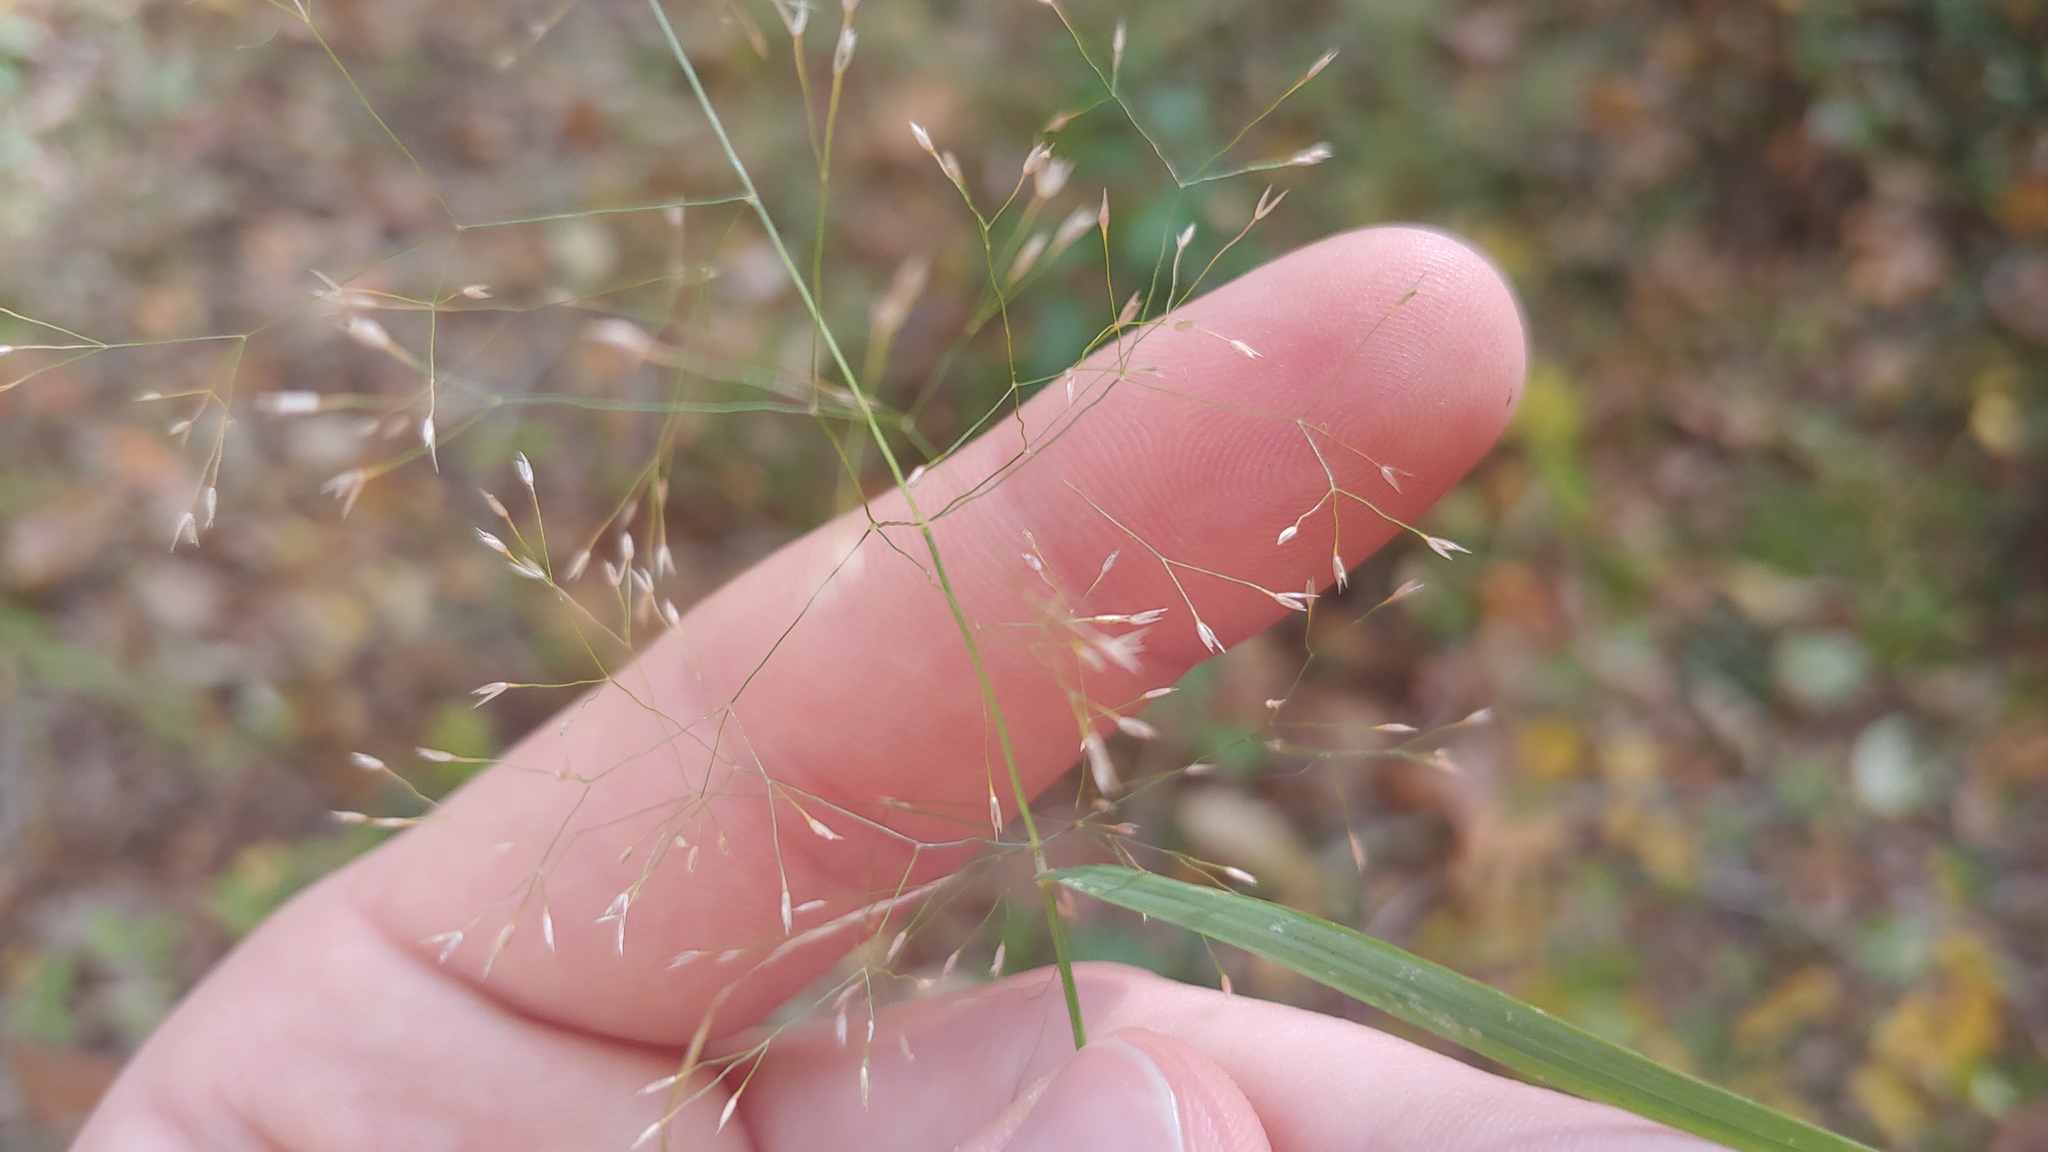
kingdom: Plantae
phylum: Tracheophyta
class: Liliopsida
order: Poales
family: Poaceae
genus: Agrostis
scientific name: Agrostis perennans
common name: Autumn bent
